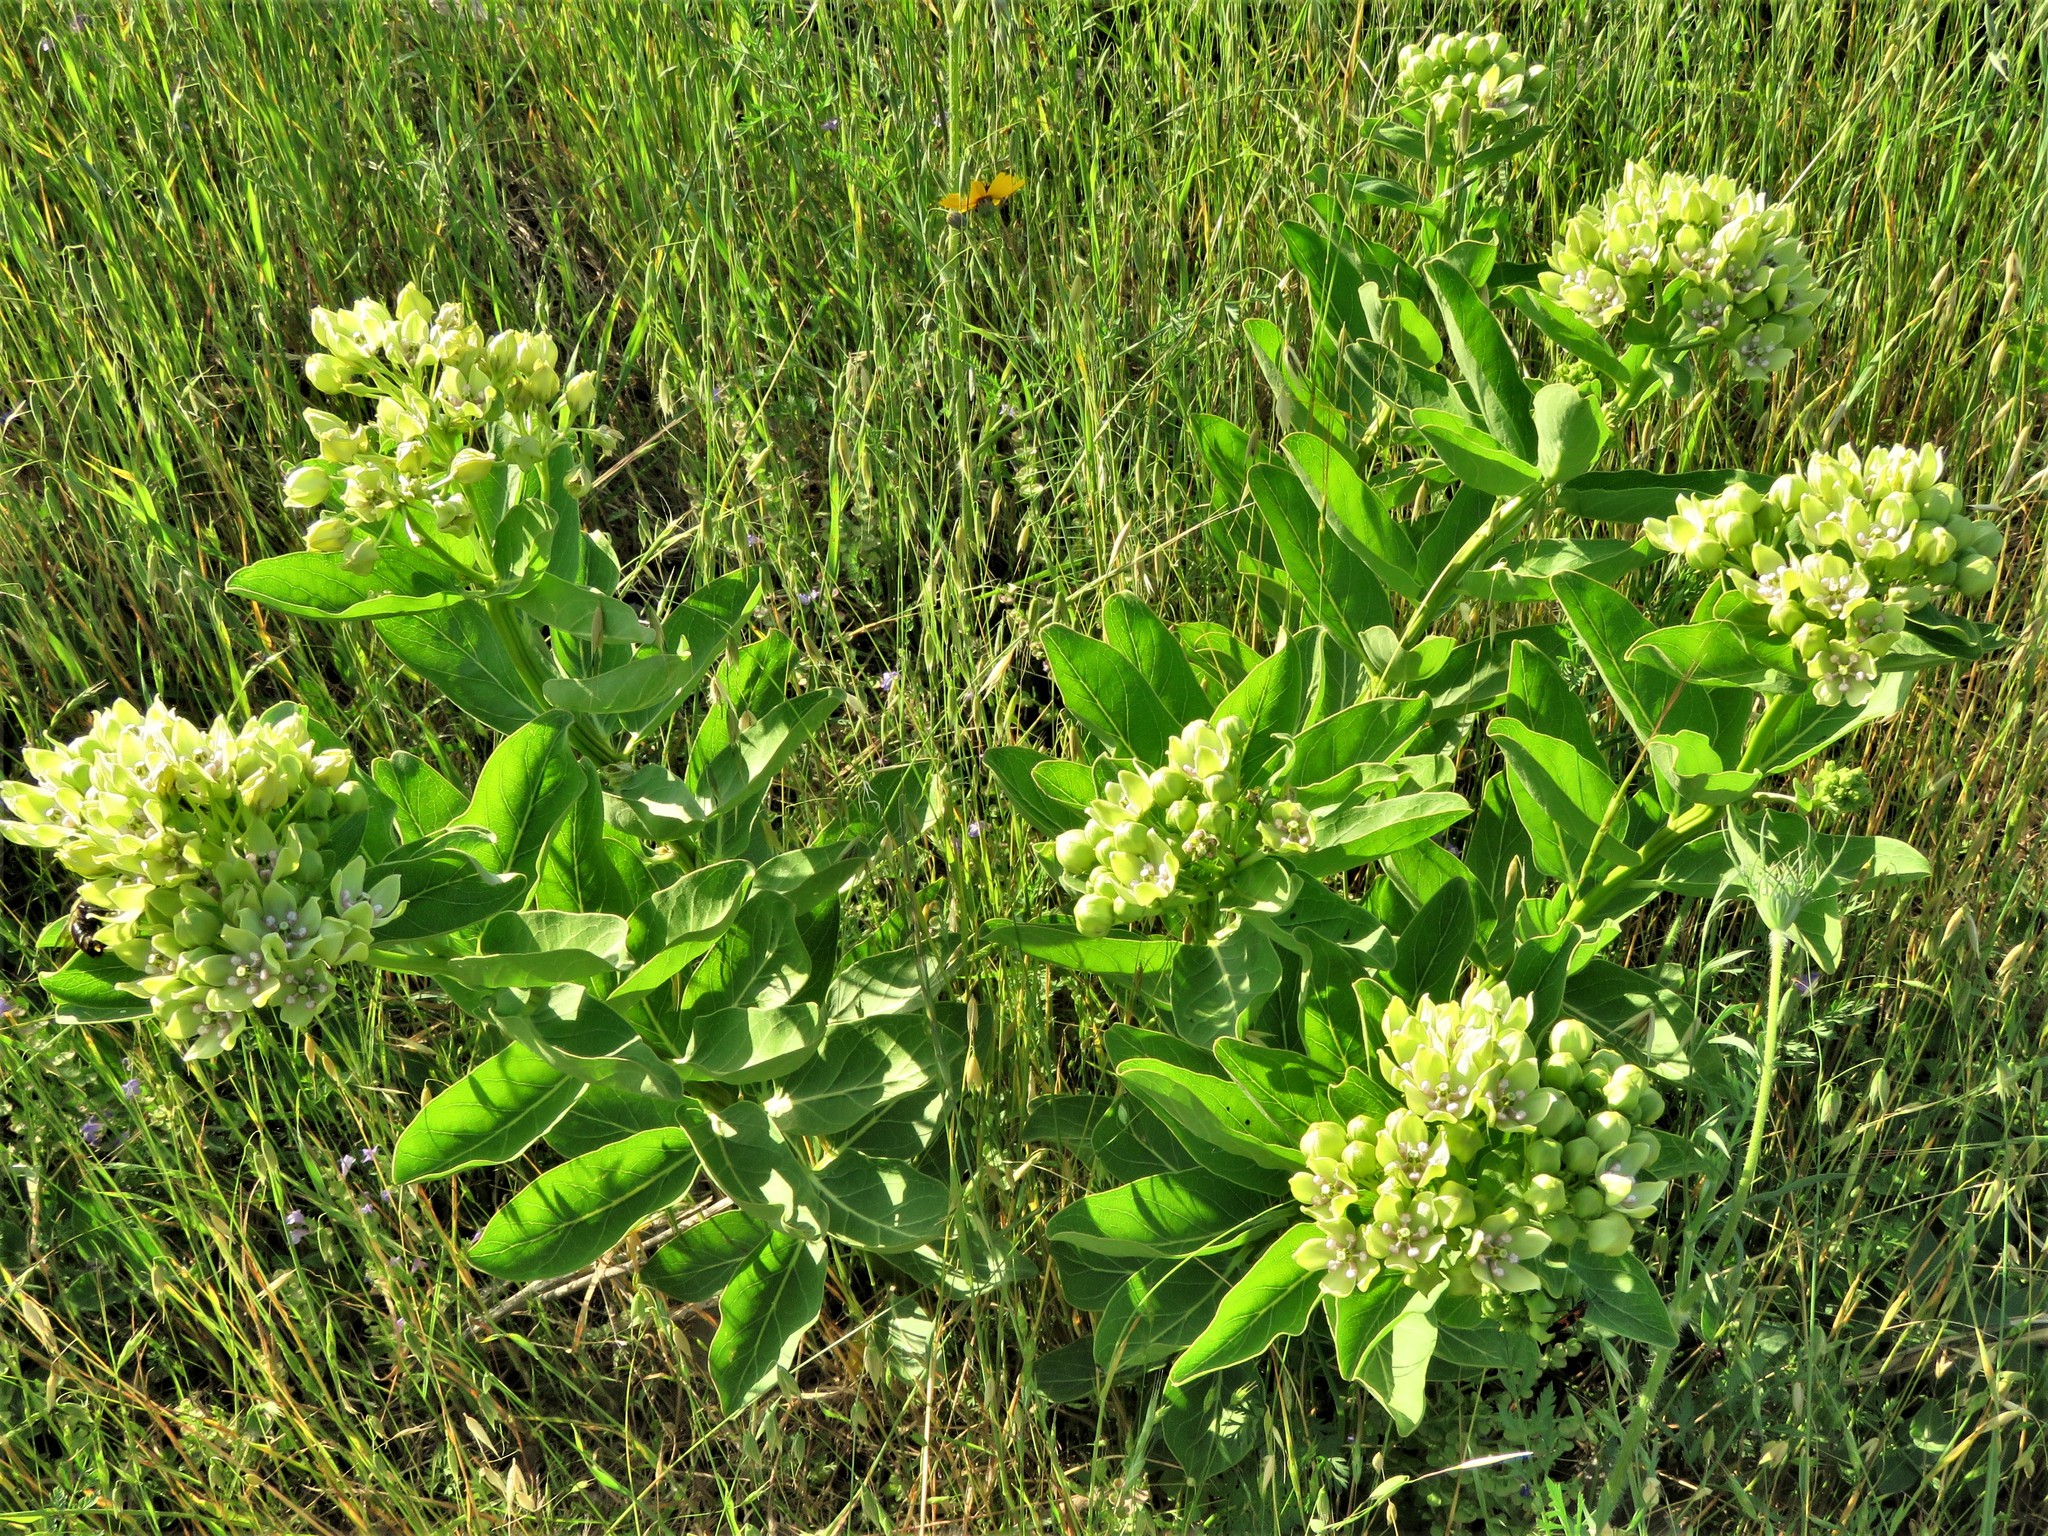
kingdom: Plantae
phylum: Tracheophyta
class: Magnoliopsida
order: Gentianales
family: Apocynaceae
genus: Asclepias
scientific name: Asclepias viridis
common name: Antelope-horns
